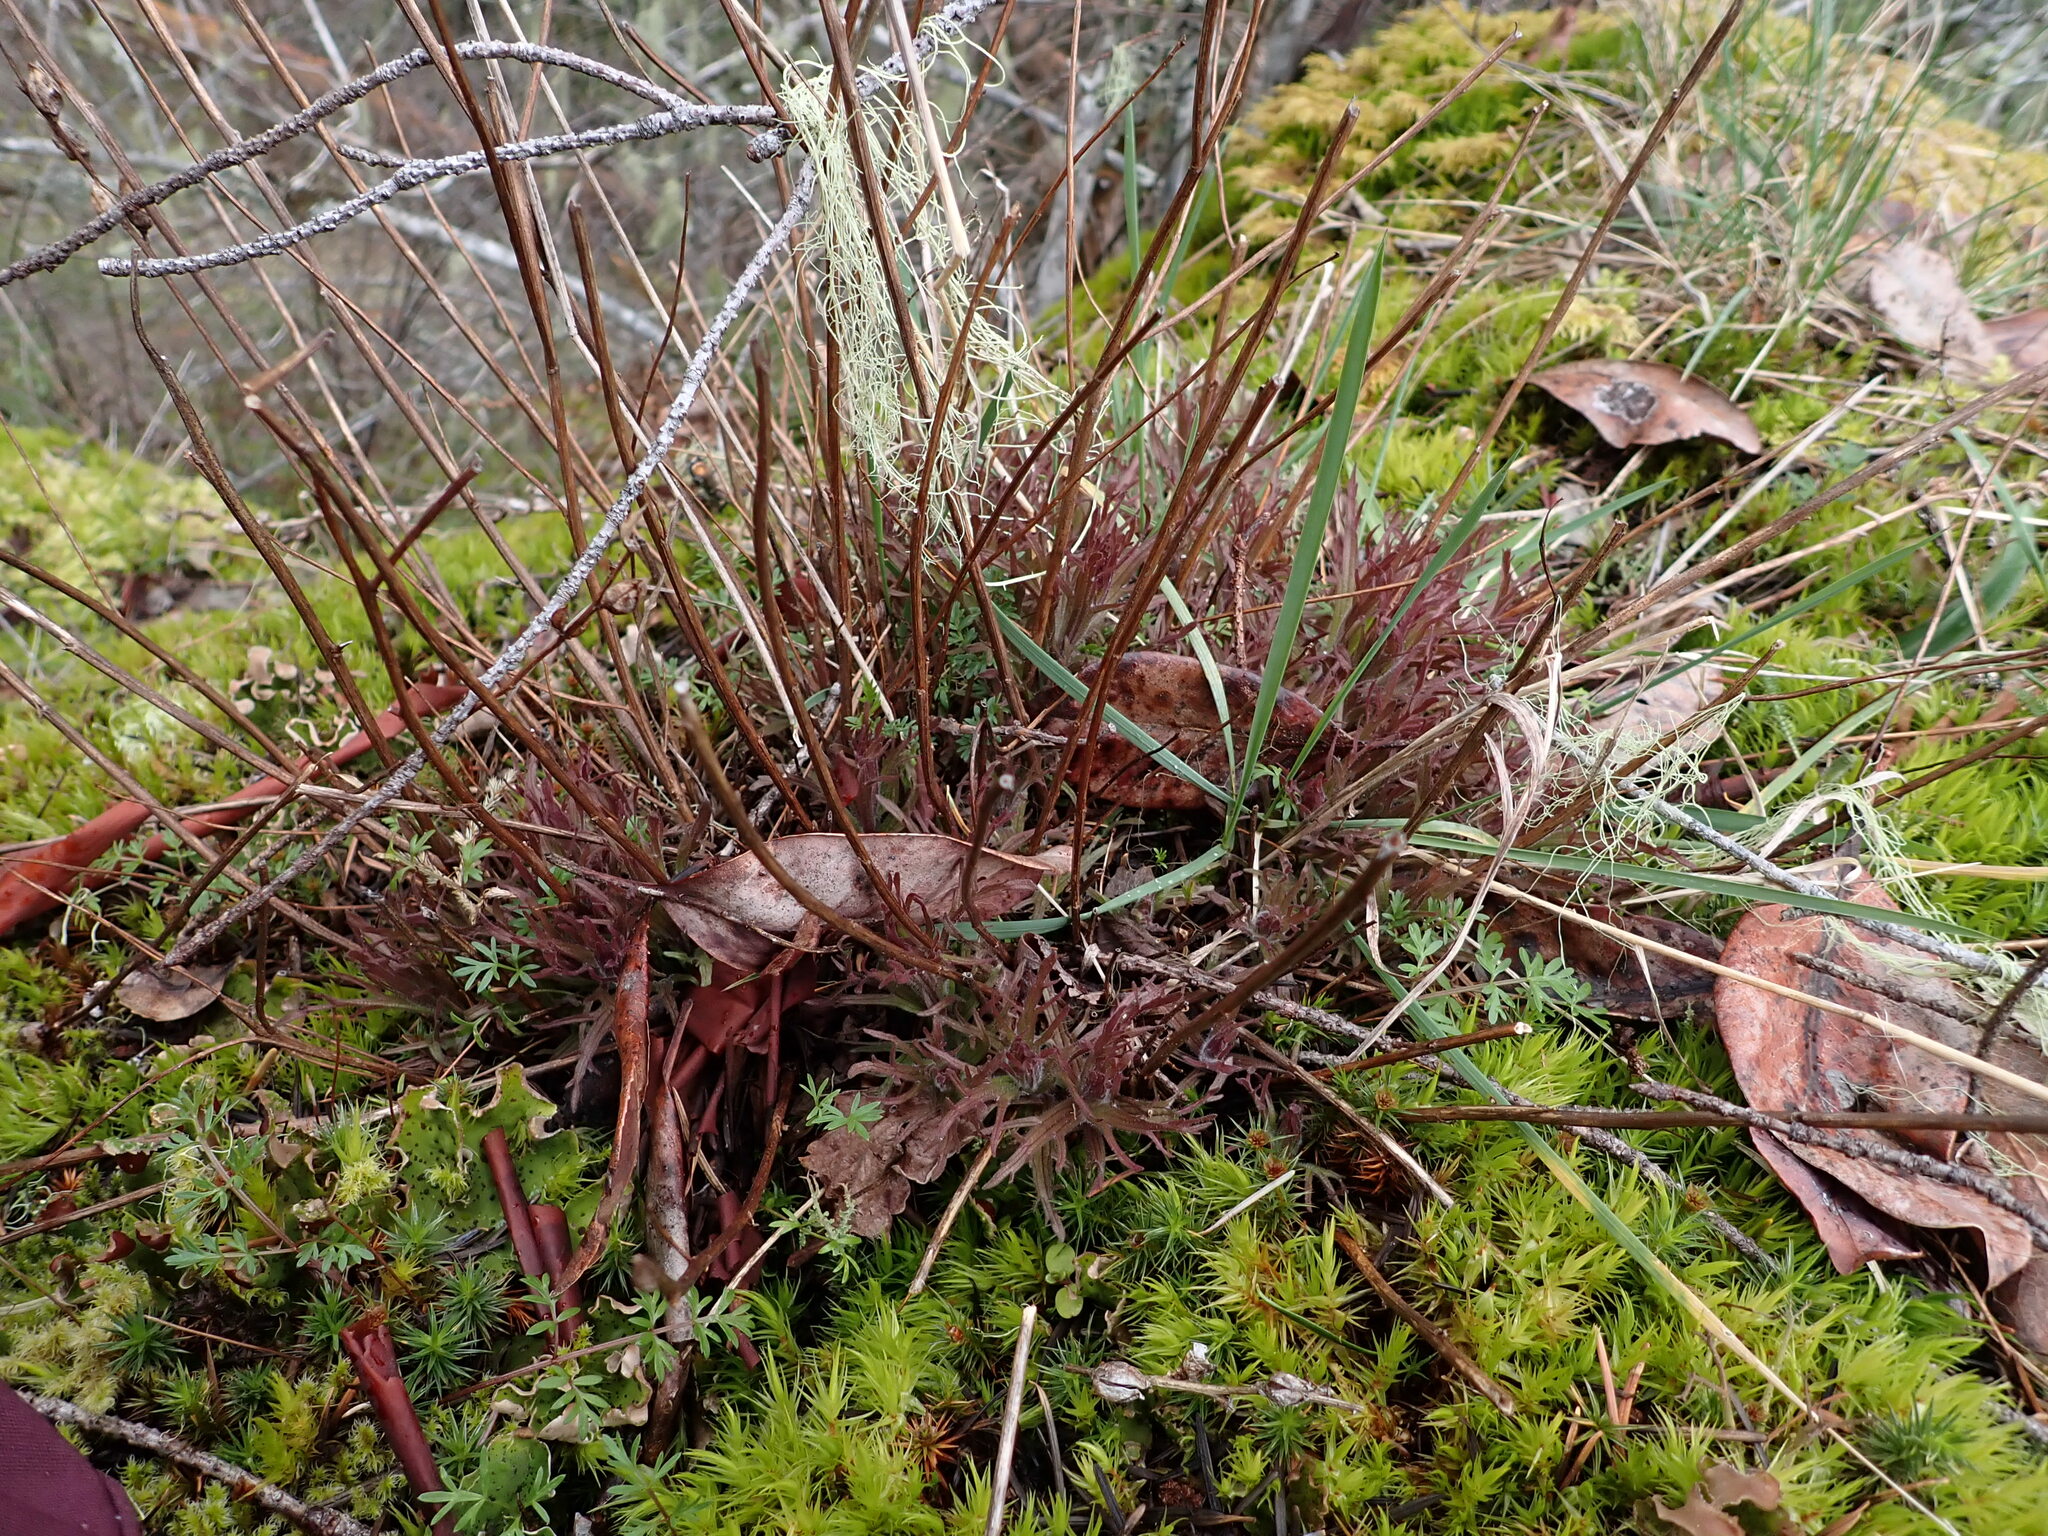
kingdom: Plantae
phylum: Tracheophyta
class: Magnoliopsida
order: Lamiales
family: Orobanchaceae
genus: Castilleja
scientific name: Castilleja hispida
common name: Bristly paintbrush
